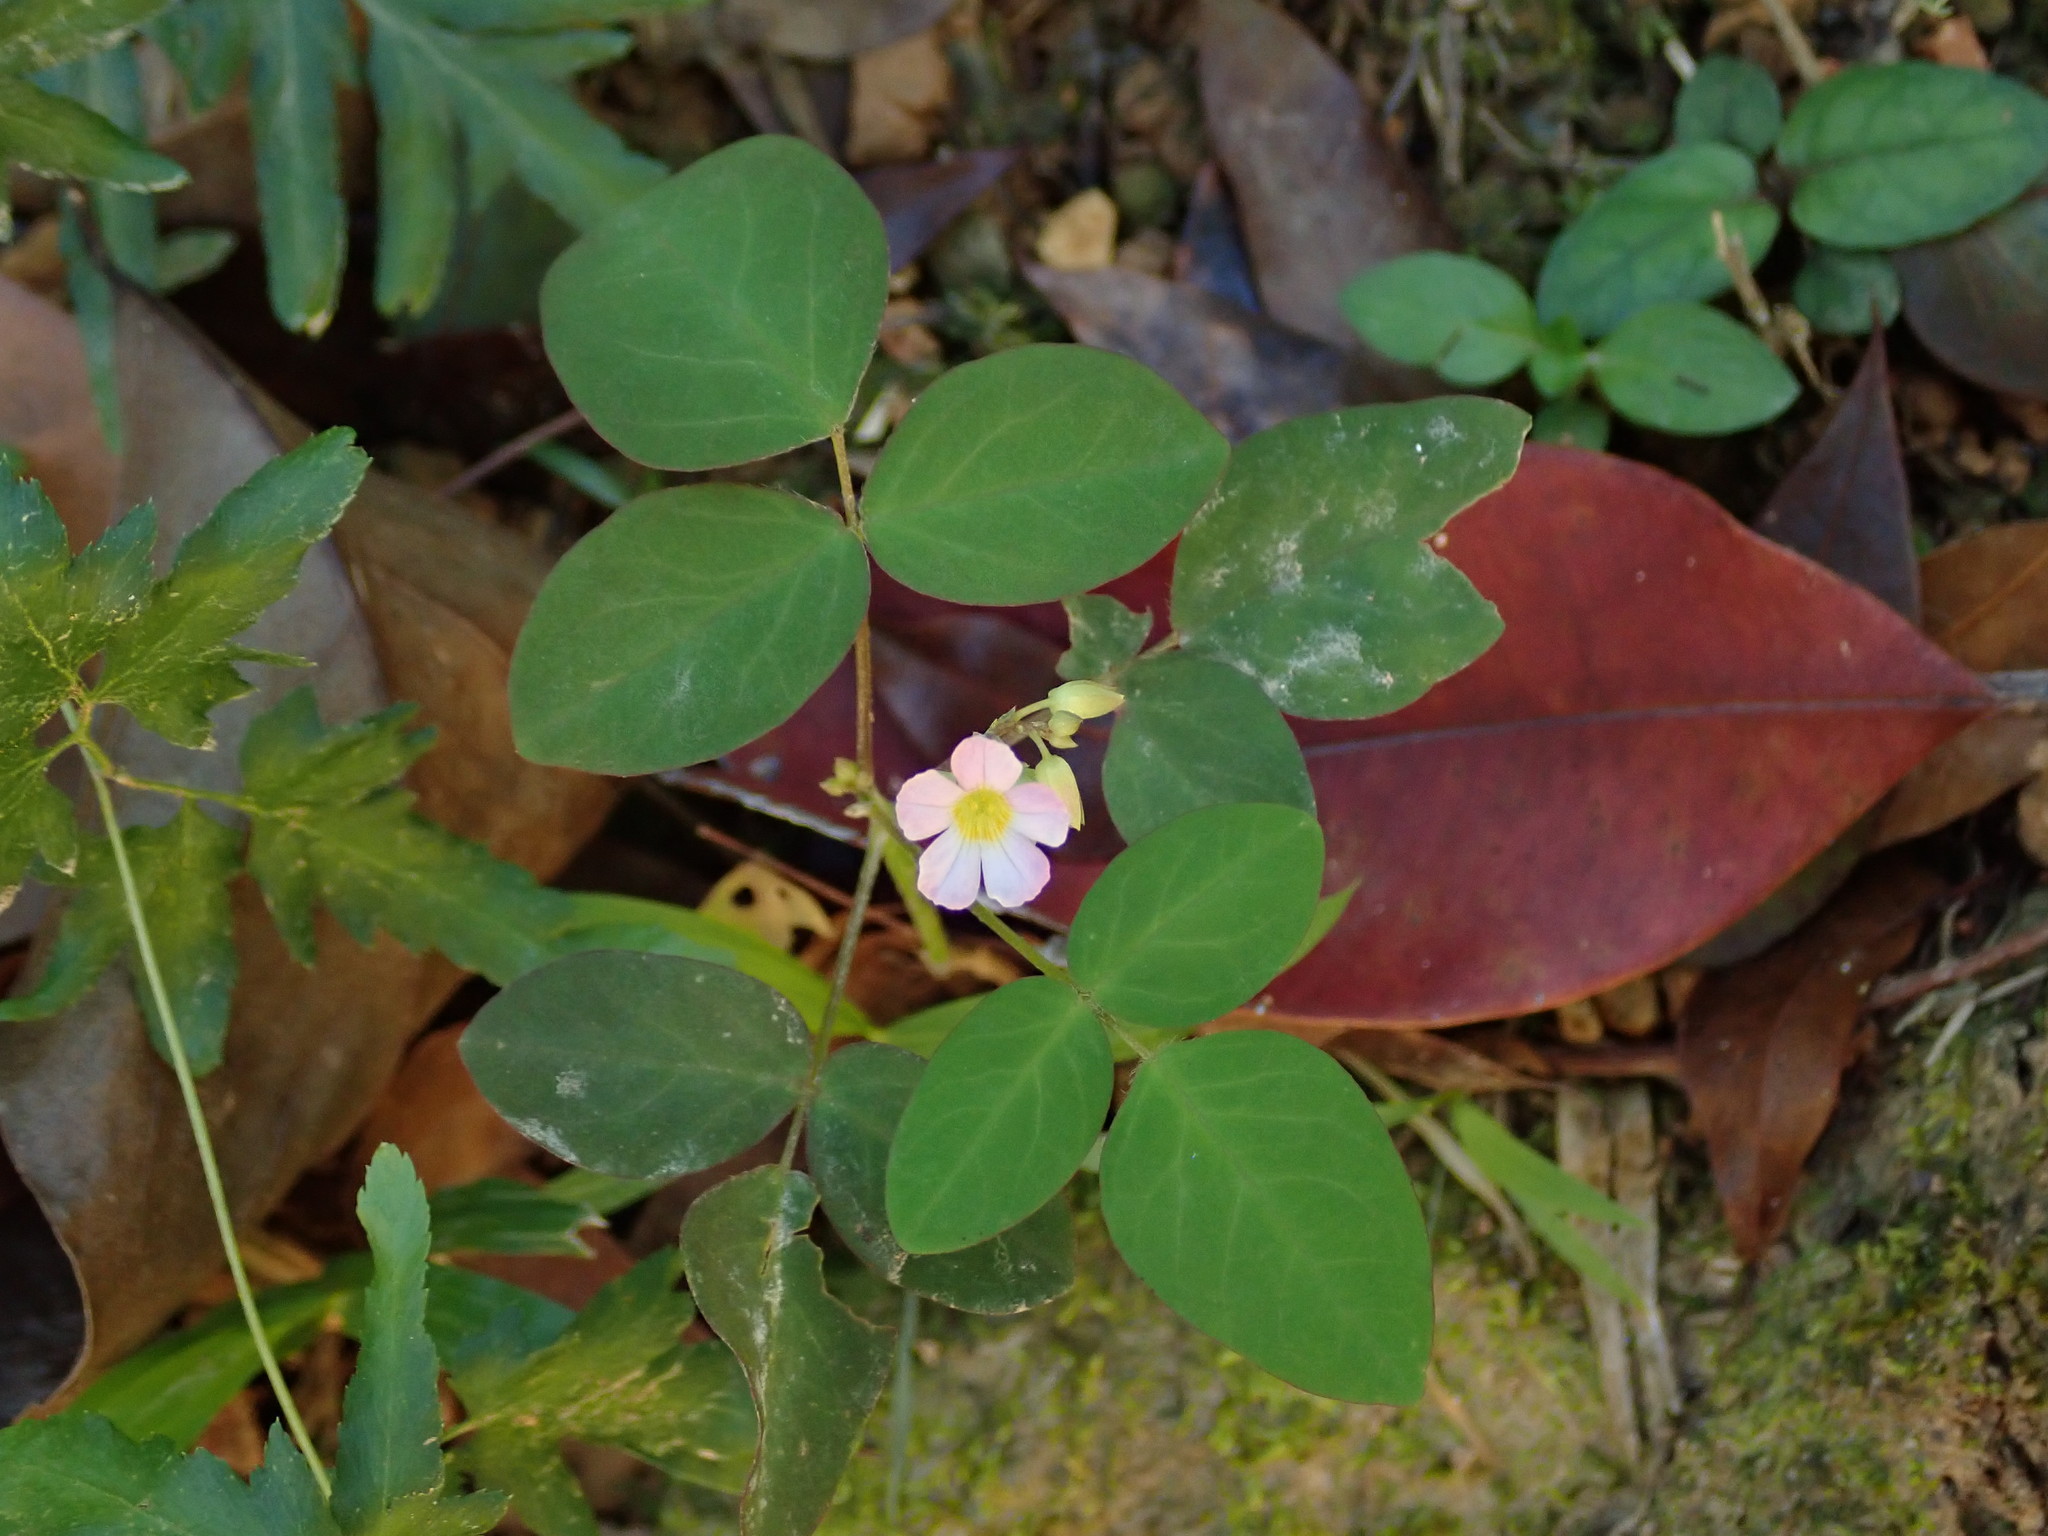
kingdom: Plantae
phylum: Tracheophyta
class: Magnoliopsida
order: Oxalidales
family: Oxalidaceae
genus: Oxalis
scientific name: Oxalis barrelieri
